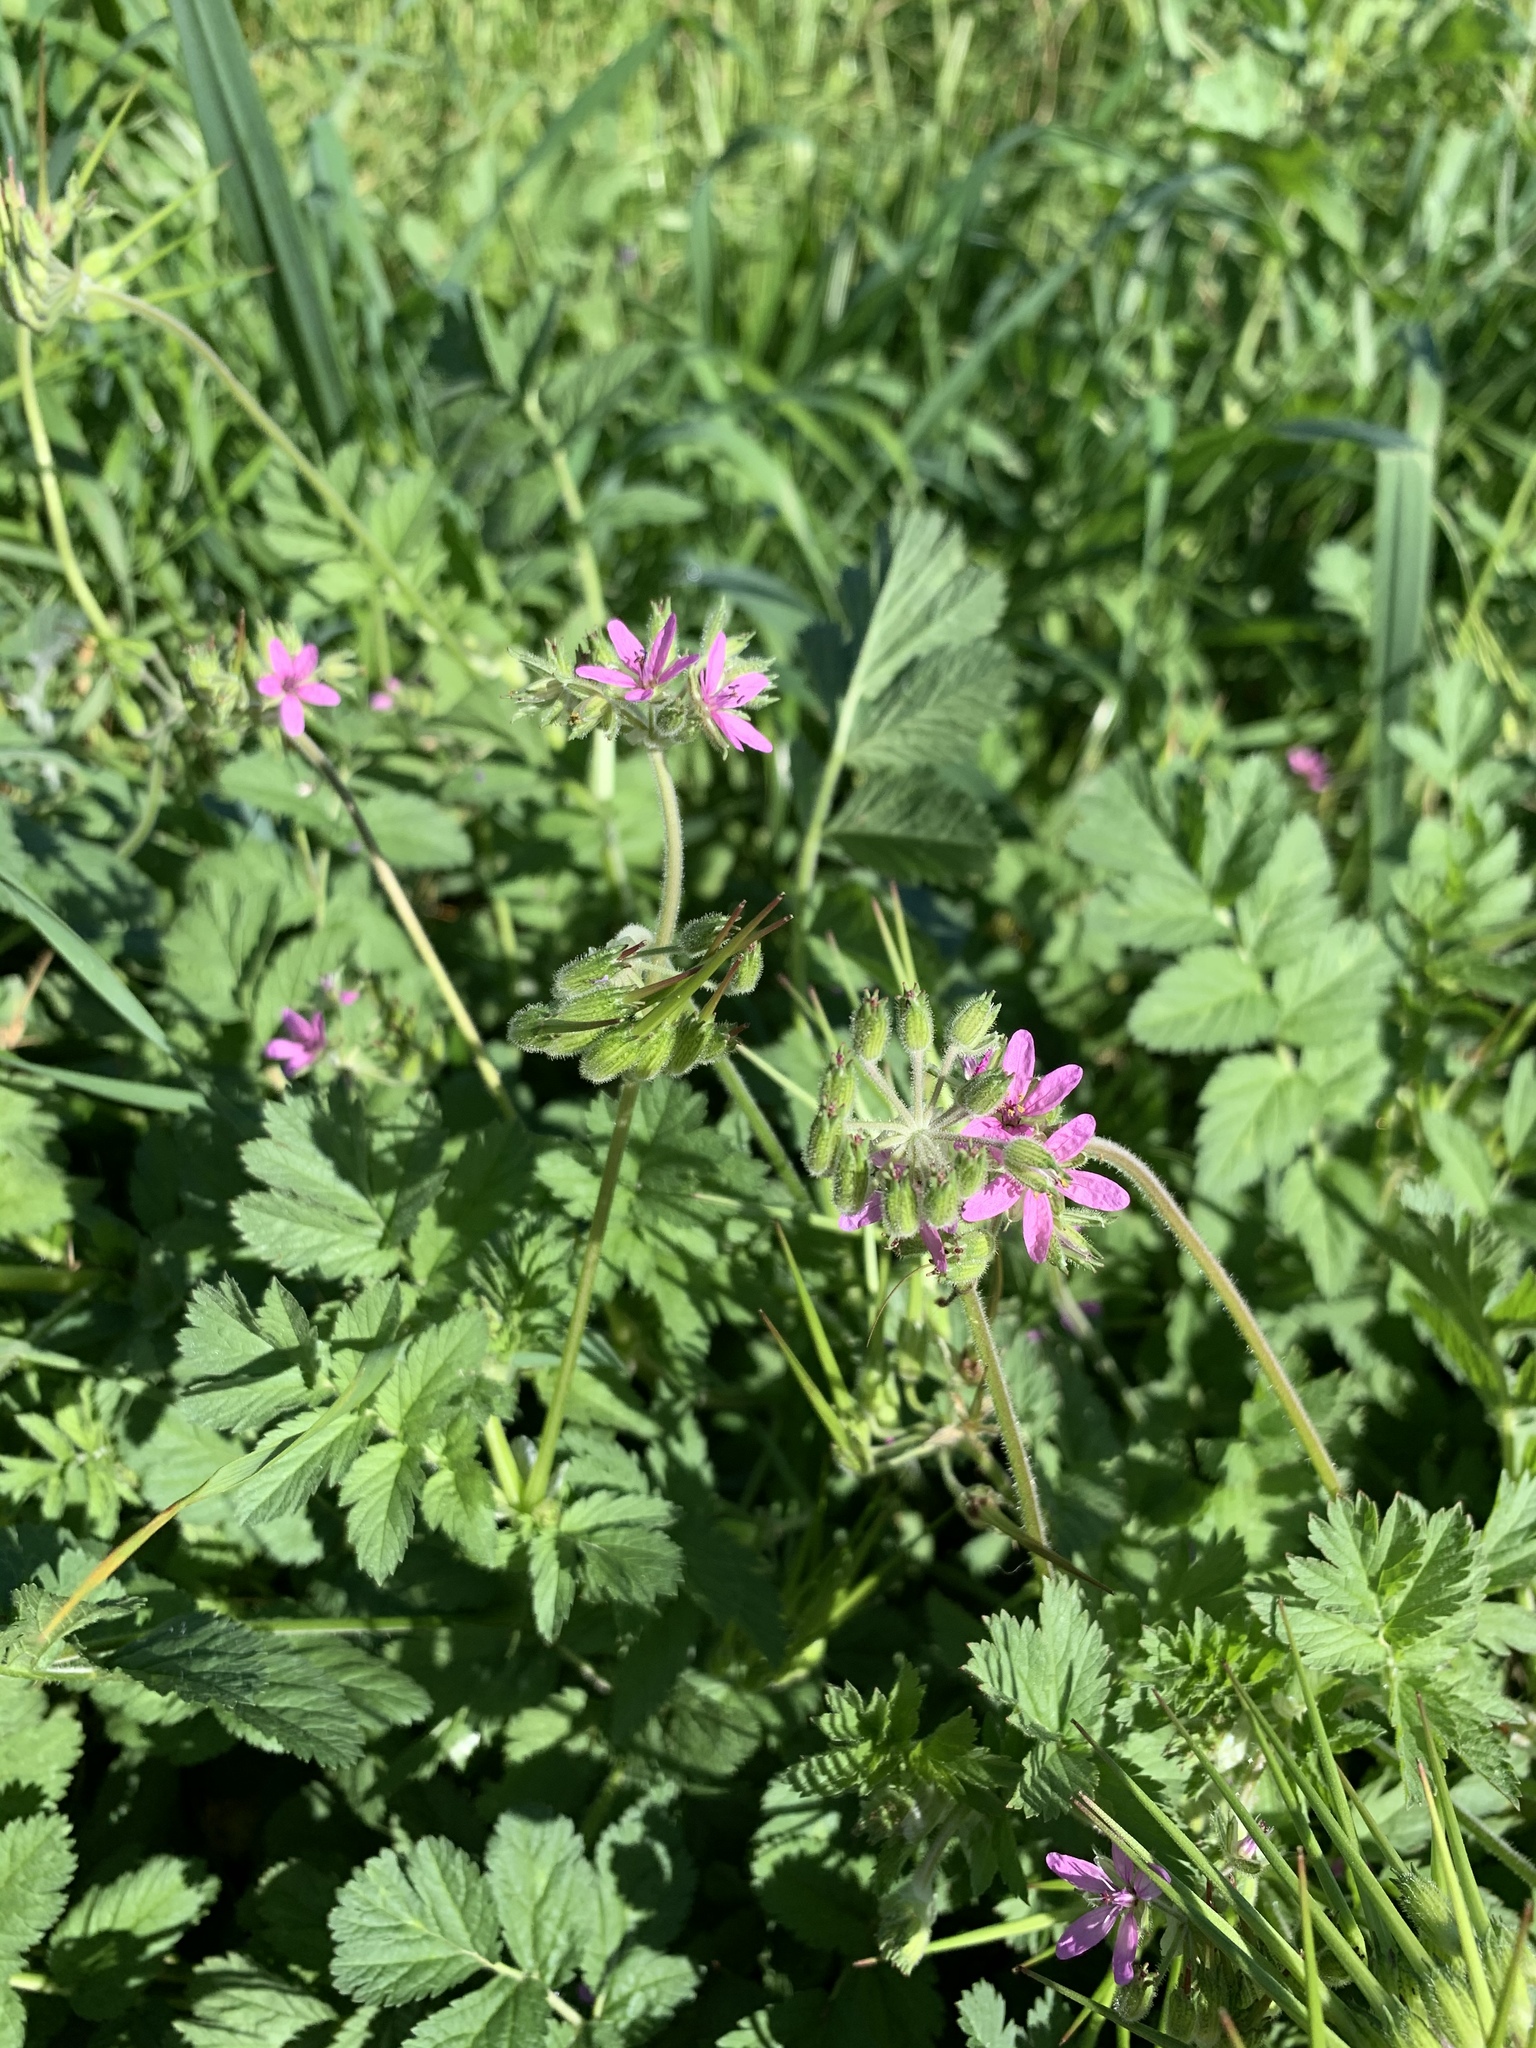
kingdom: Plantae
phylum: Tracheophyta
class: Magnoliopsida
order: Geraniales
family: Geraniaceae
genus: Erodium
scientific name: Erodium moschatum
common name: Musk stork's-bill
